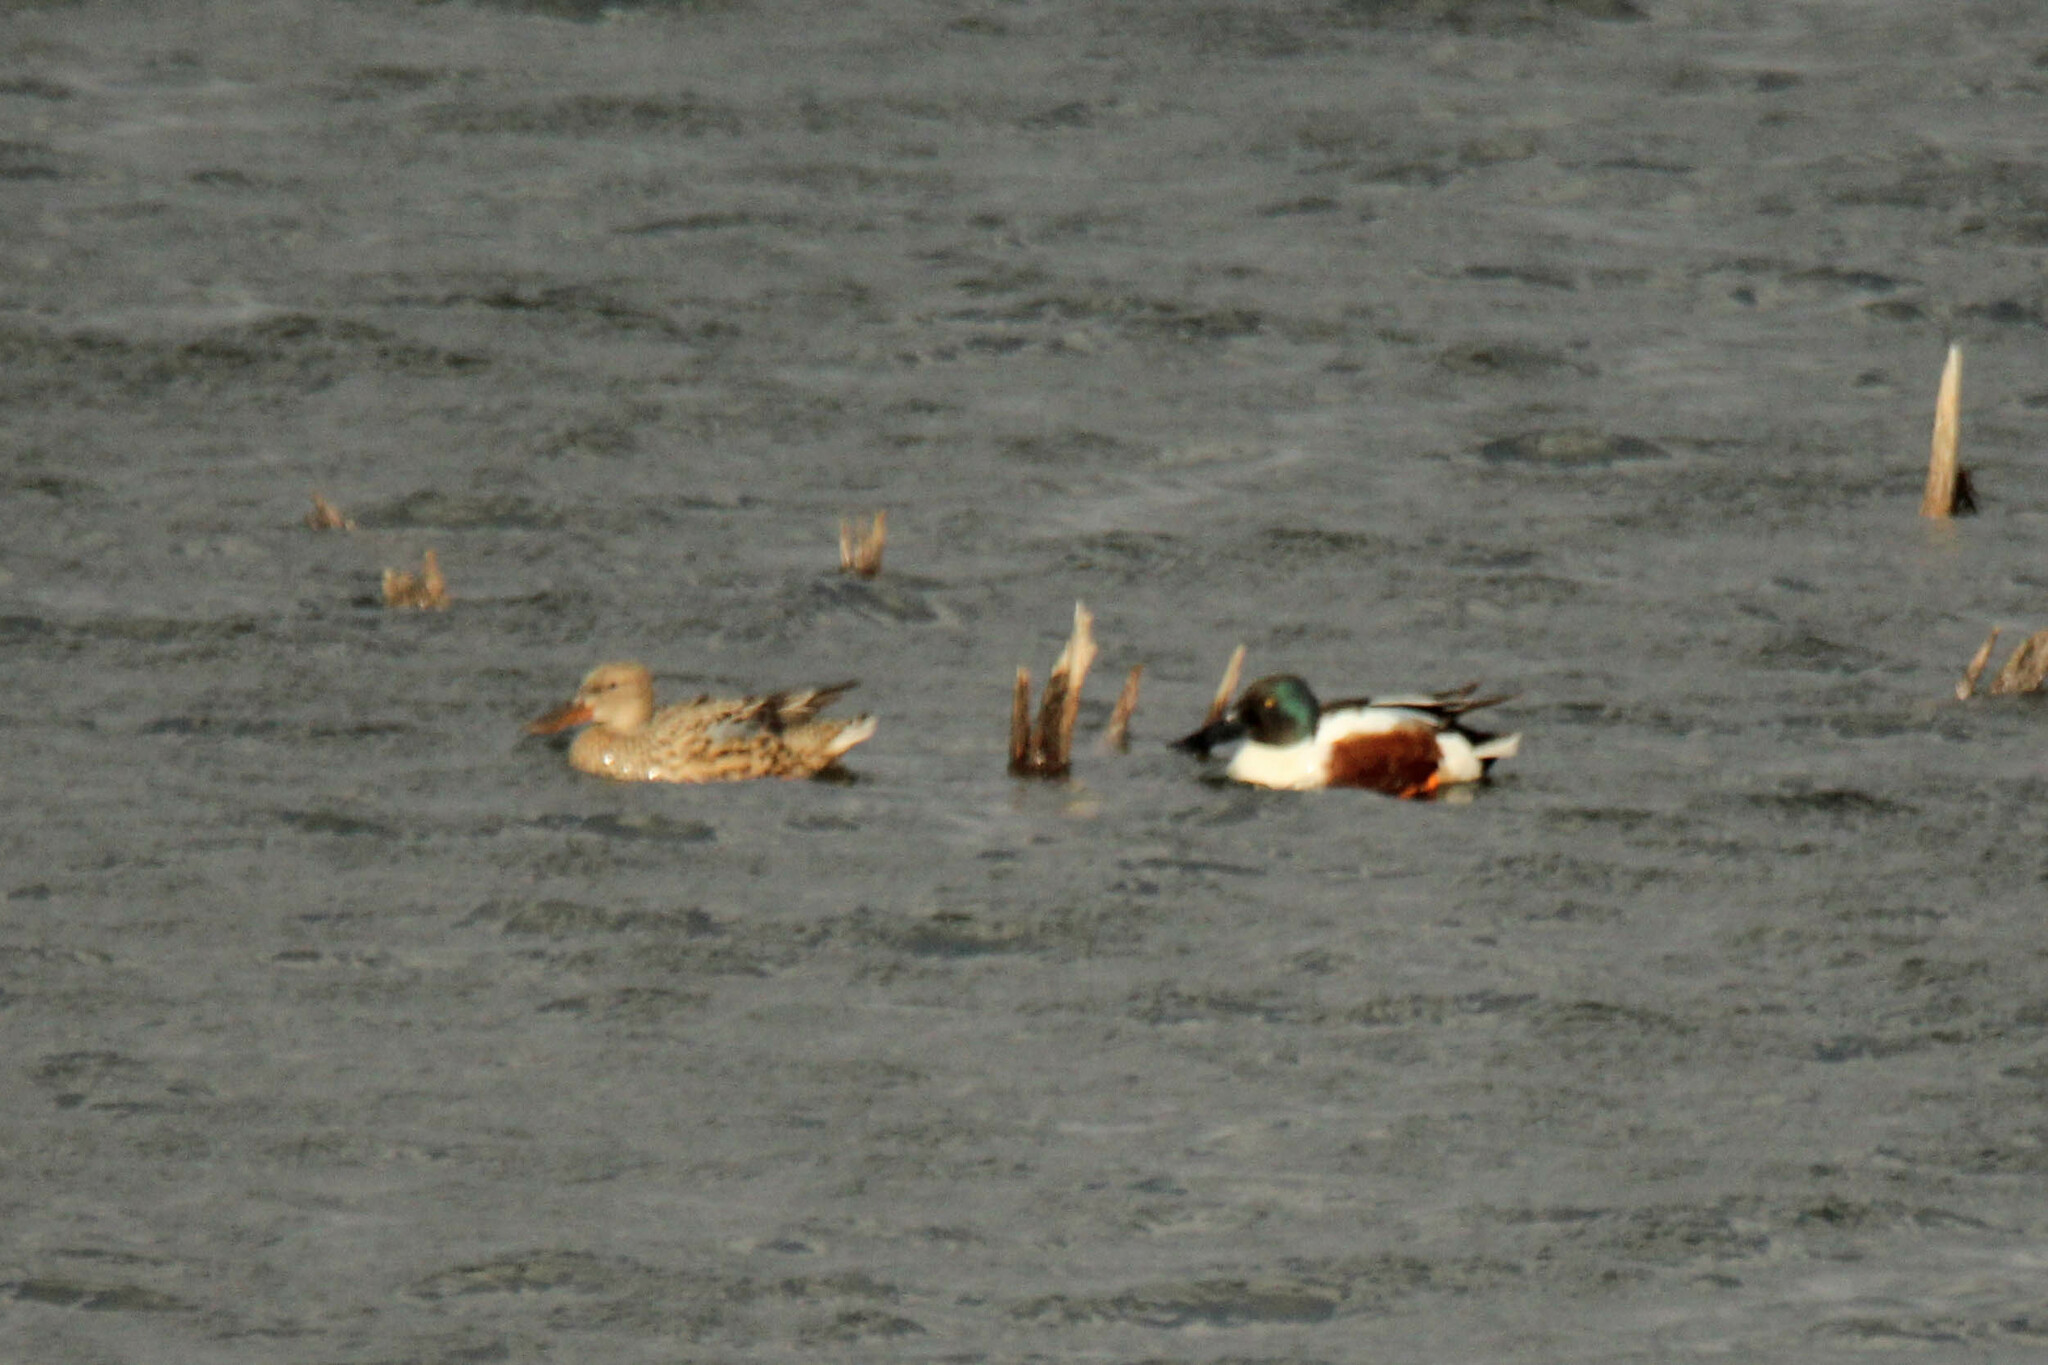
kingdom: Animalia
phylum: Chordata
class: Aves
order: Anseriformes
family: Anatidae
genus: Spatula
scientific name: Spatula clypeata
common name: Northern shoveler
